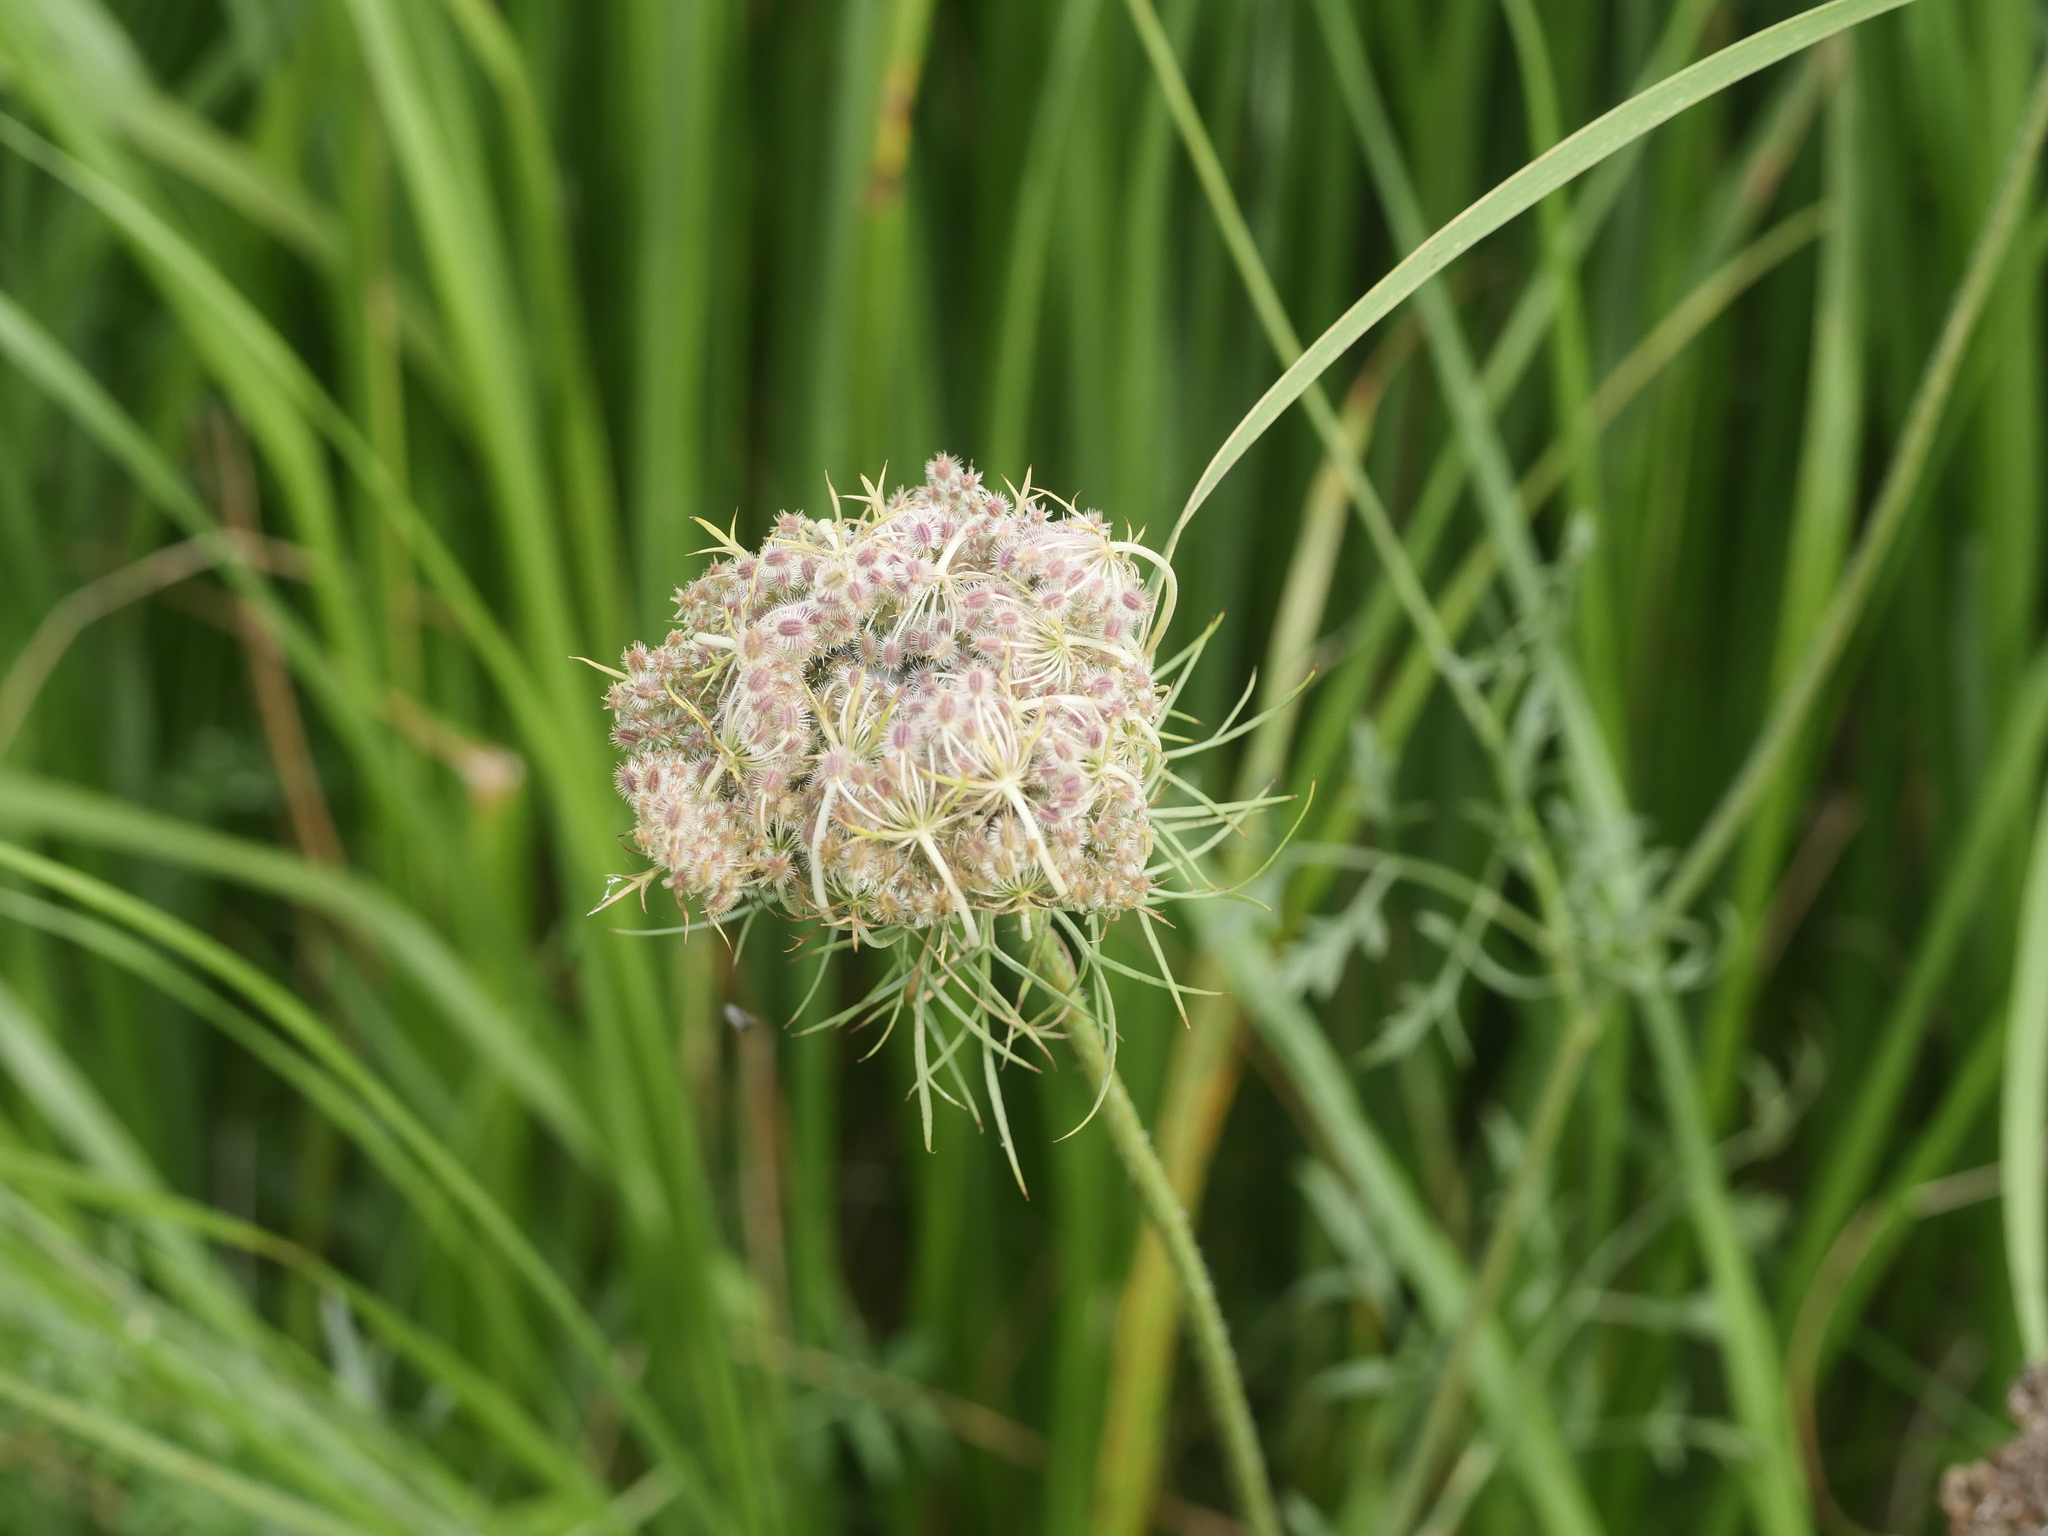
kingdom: Plantae
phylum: Tracheophyta
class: Magnoliopsida
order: Apiales
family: Apiaceae
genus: Daucus
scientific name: Daucus carota
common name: Wild carrot
